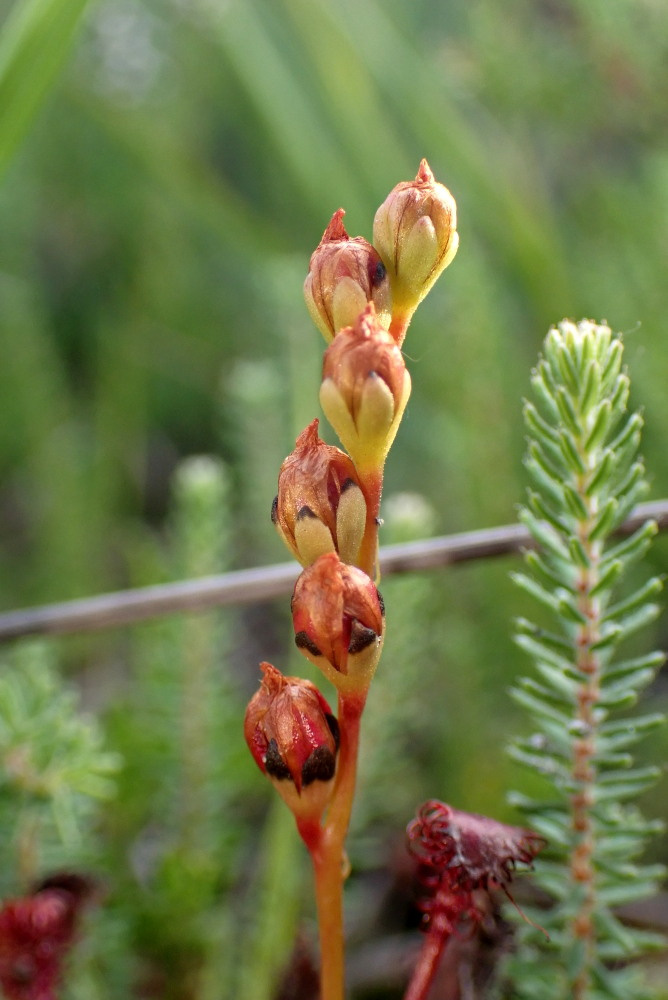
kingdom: Plantae
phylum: Tracheophyta
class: Magnoliopsida
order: Caryophyllales
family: Droseraceae
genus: Drosera
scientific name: Drosera intermedia
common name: Oblong-leaved sundew
